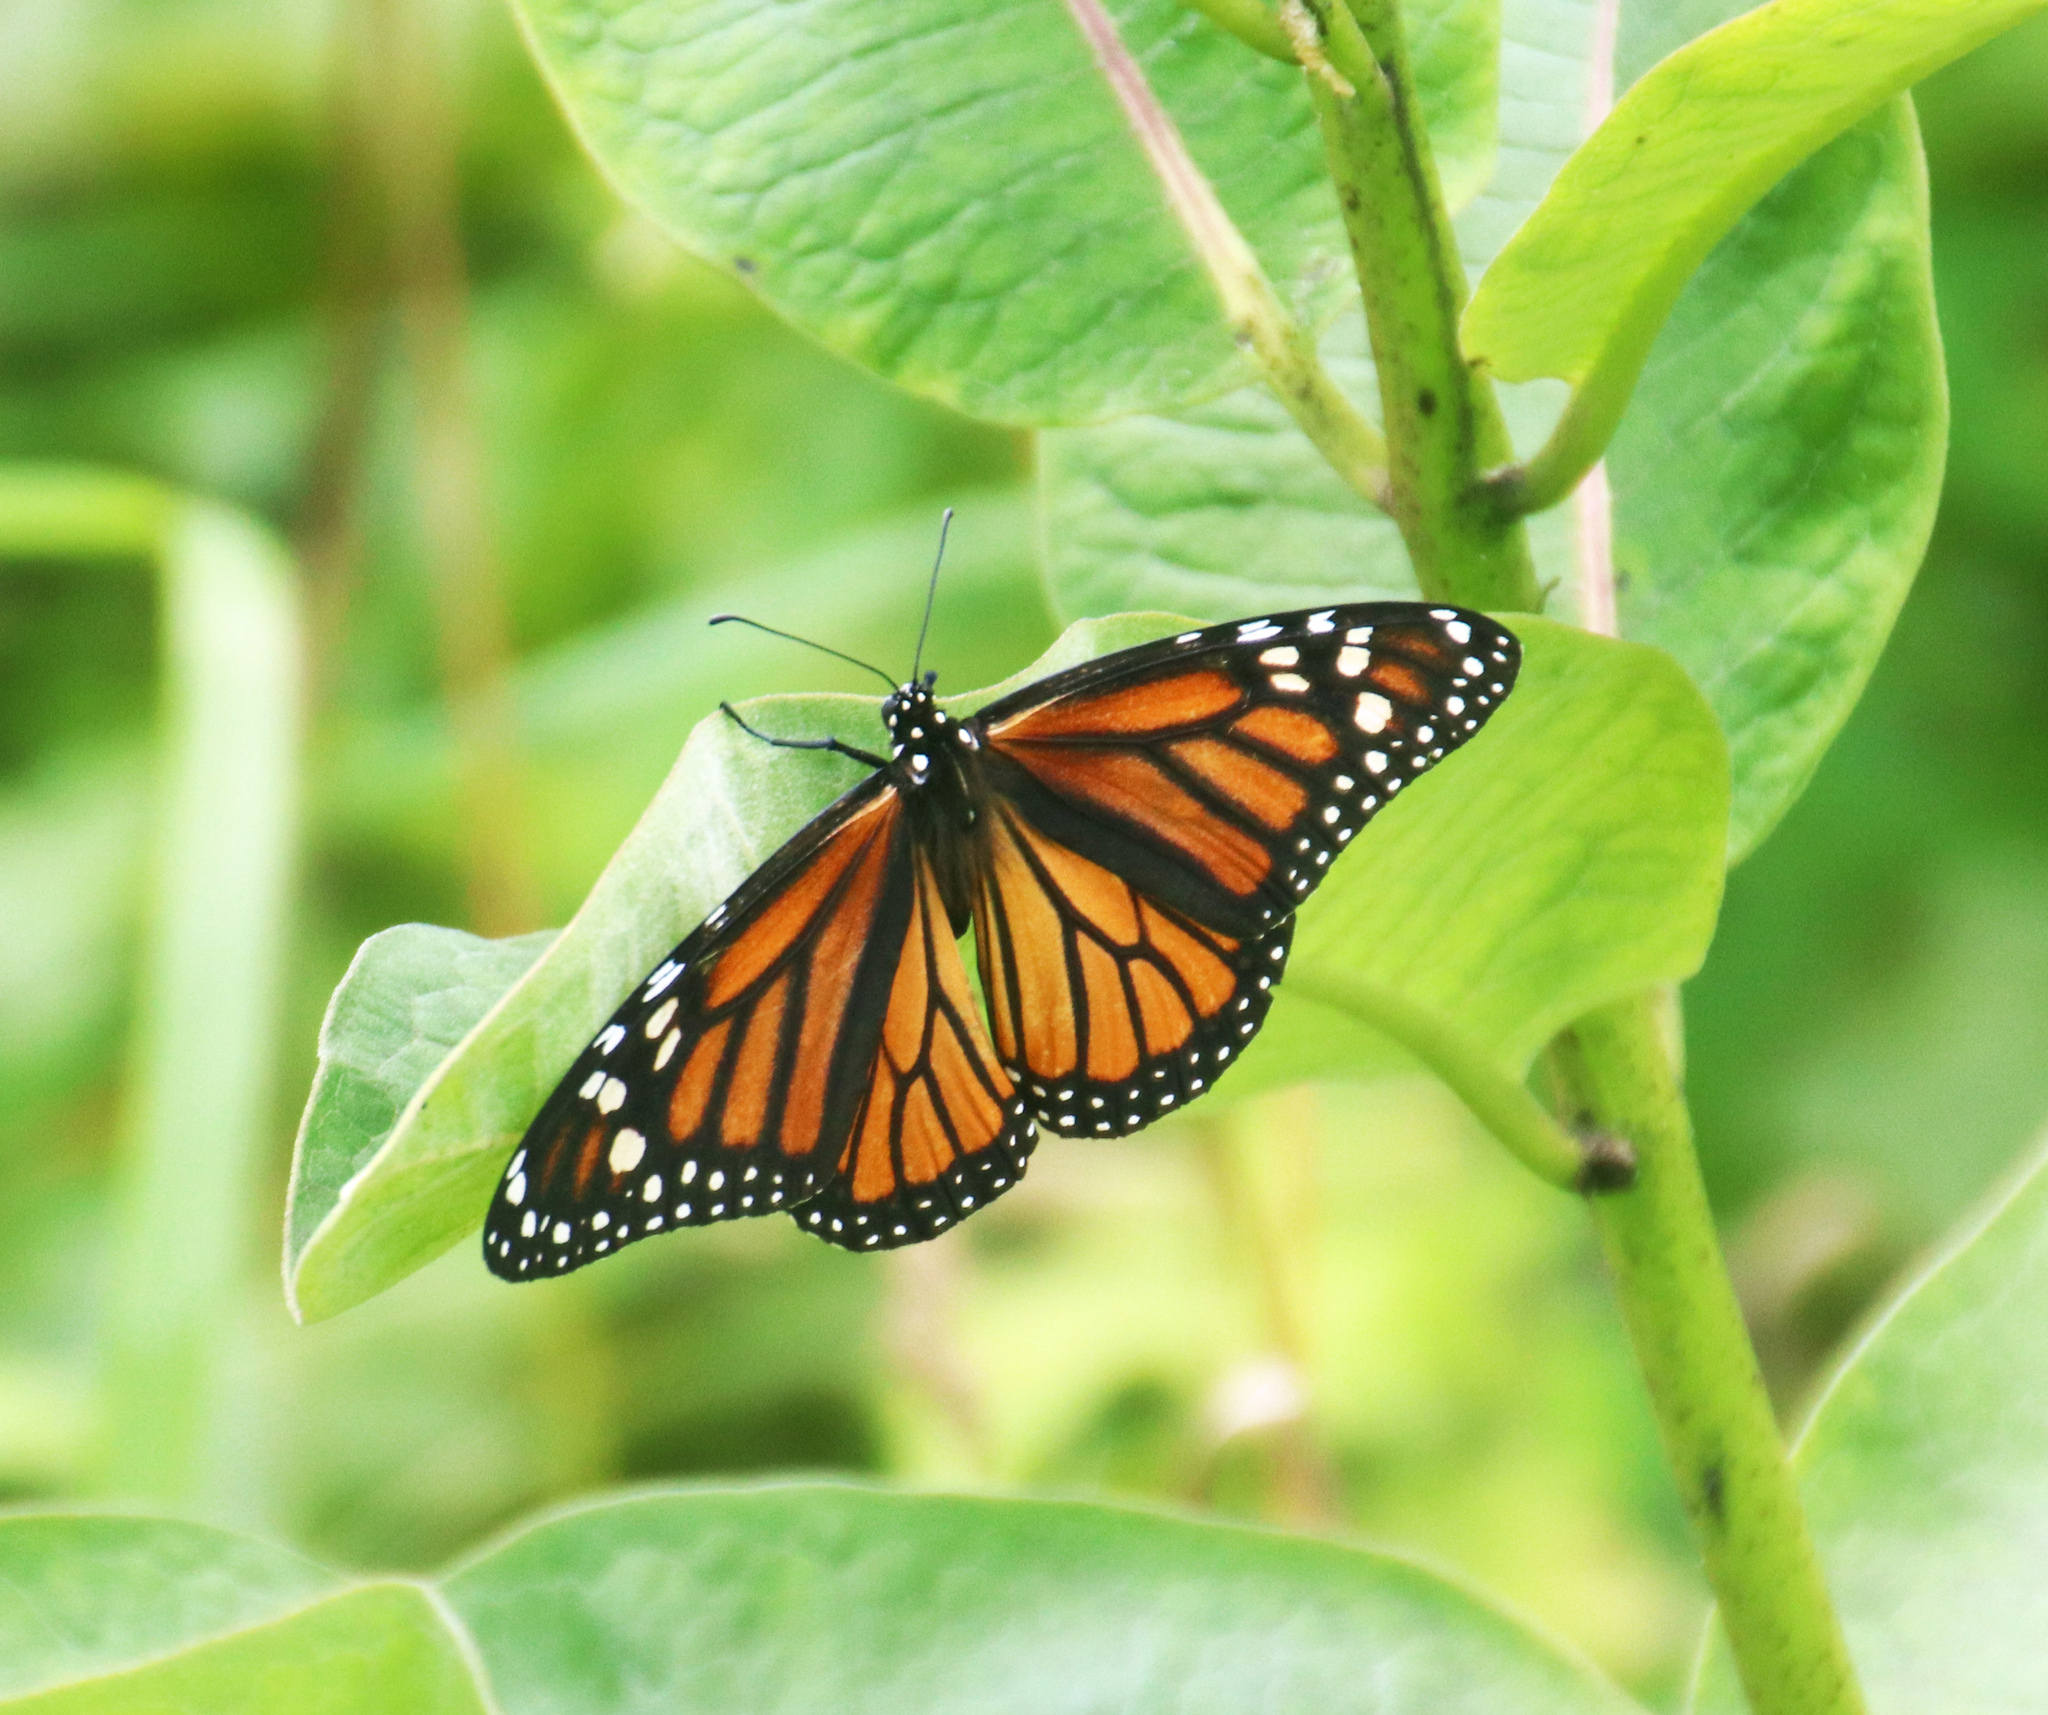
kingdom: Animalia
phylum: Arthropoda
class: Insecta
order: Lepidoptera
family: Nymphalidae
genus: Danaus
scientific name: Danaus plexippus
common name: Monarch
